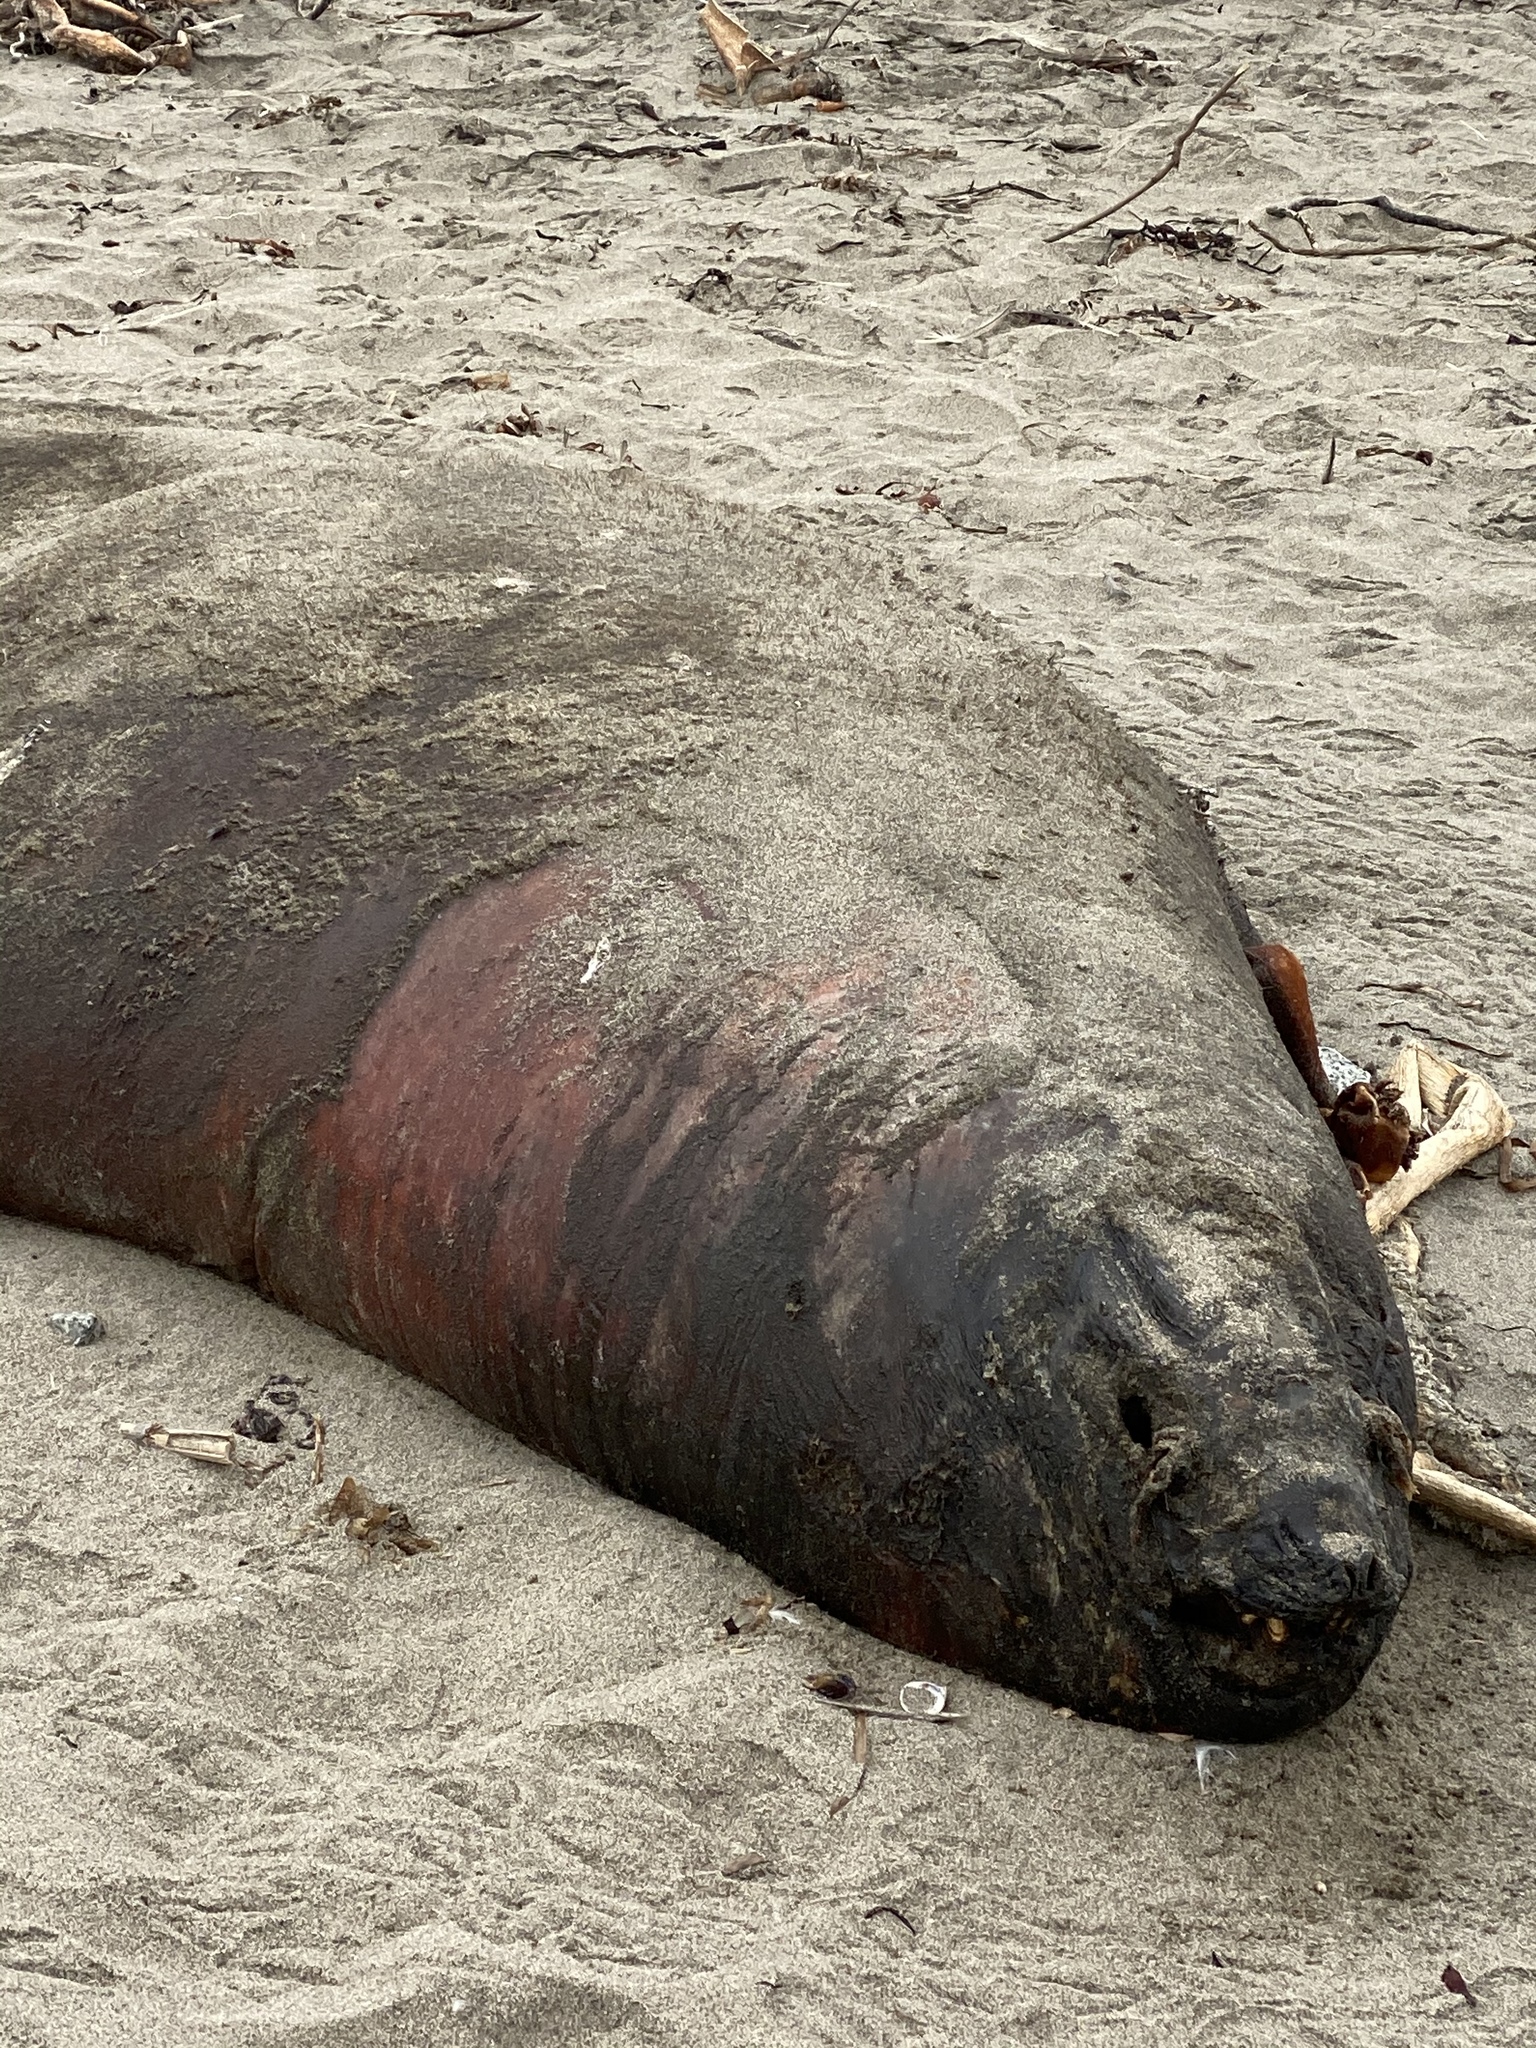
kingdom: Animalia
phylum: Chordata
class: Mammalia
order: Carnivora
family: Otariidae
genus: Zalophus
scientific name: Zalophus californianus
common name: California sea lion
